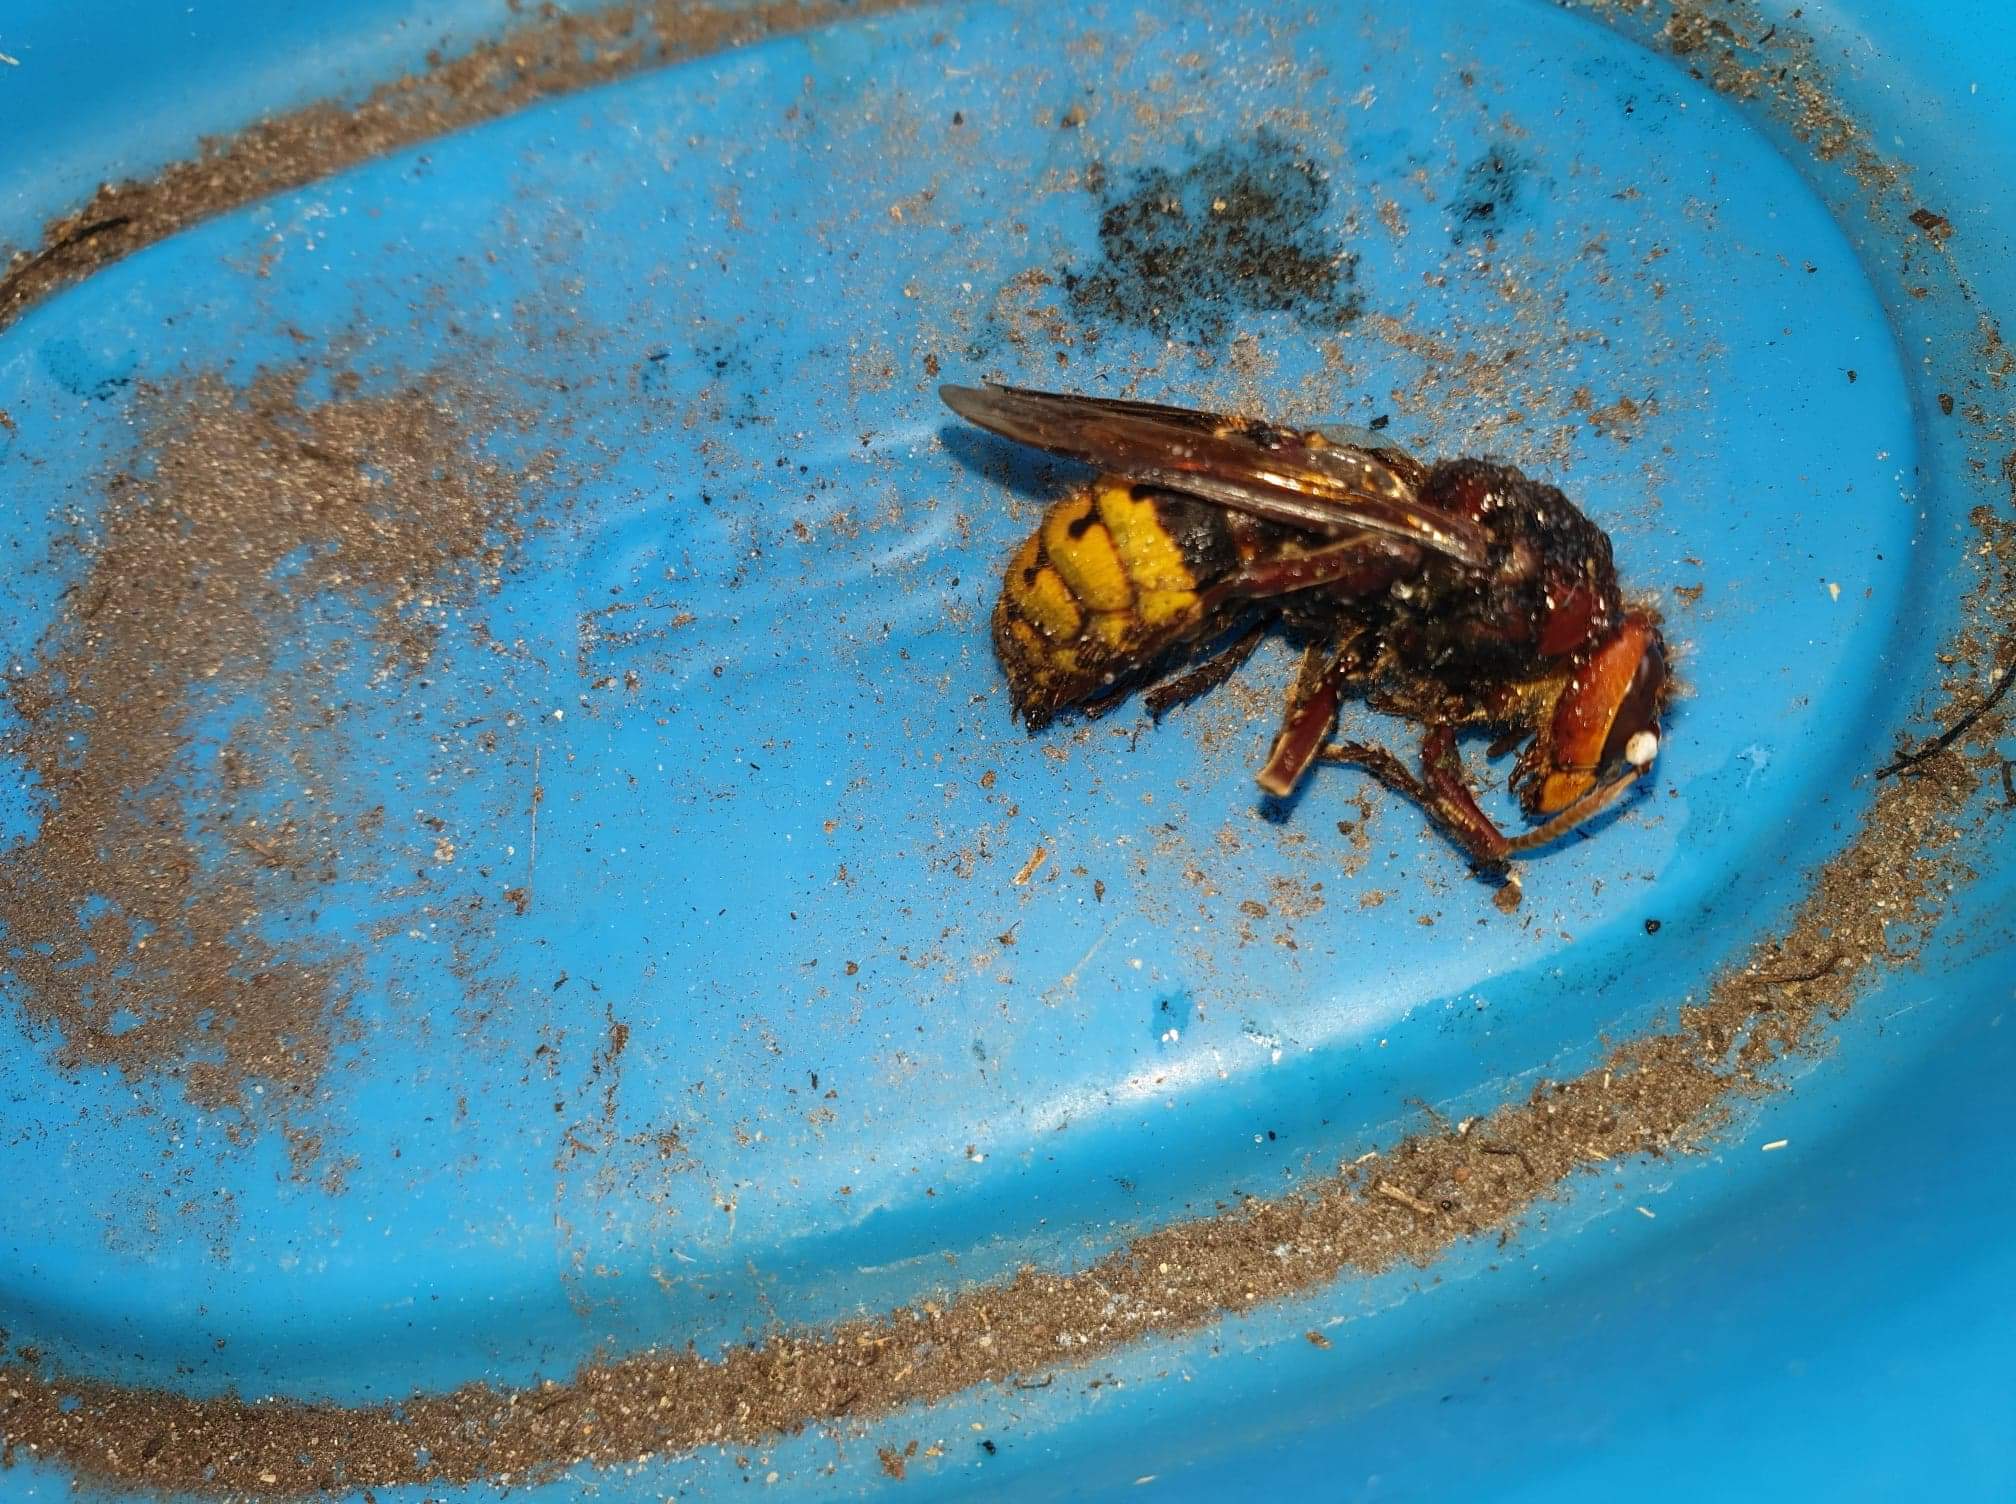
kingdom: Animalia
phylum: Arthropoda
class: Insecta
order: Hymenoptera
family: Vespidae
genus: Vespa
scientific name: Vespa crabro
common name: Hornet
